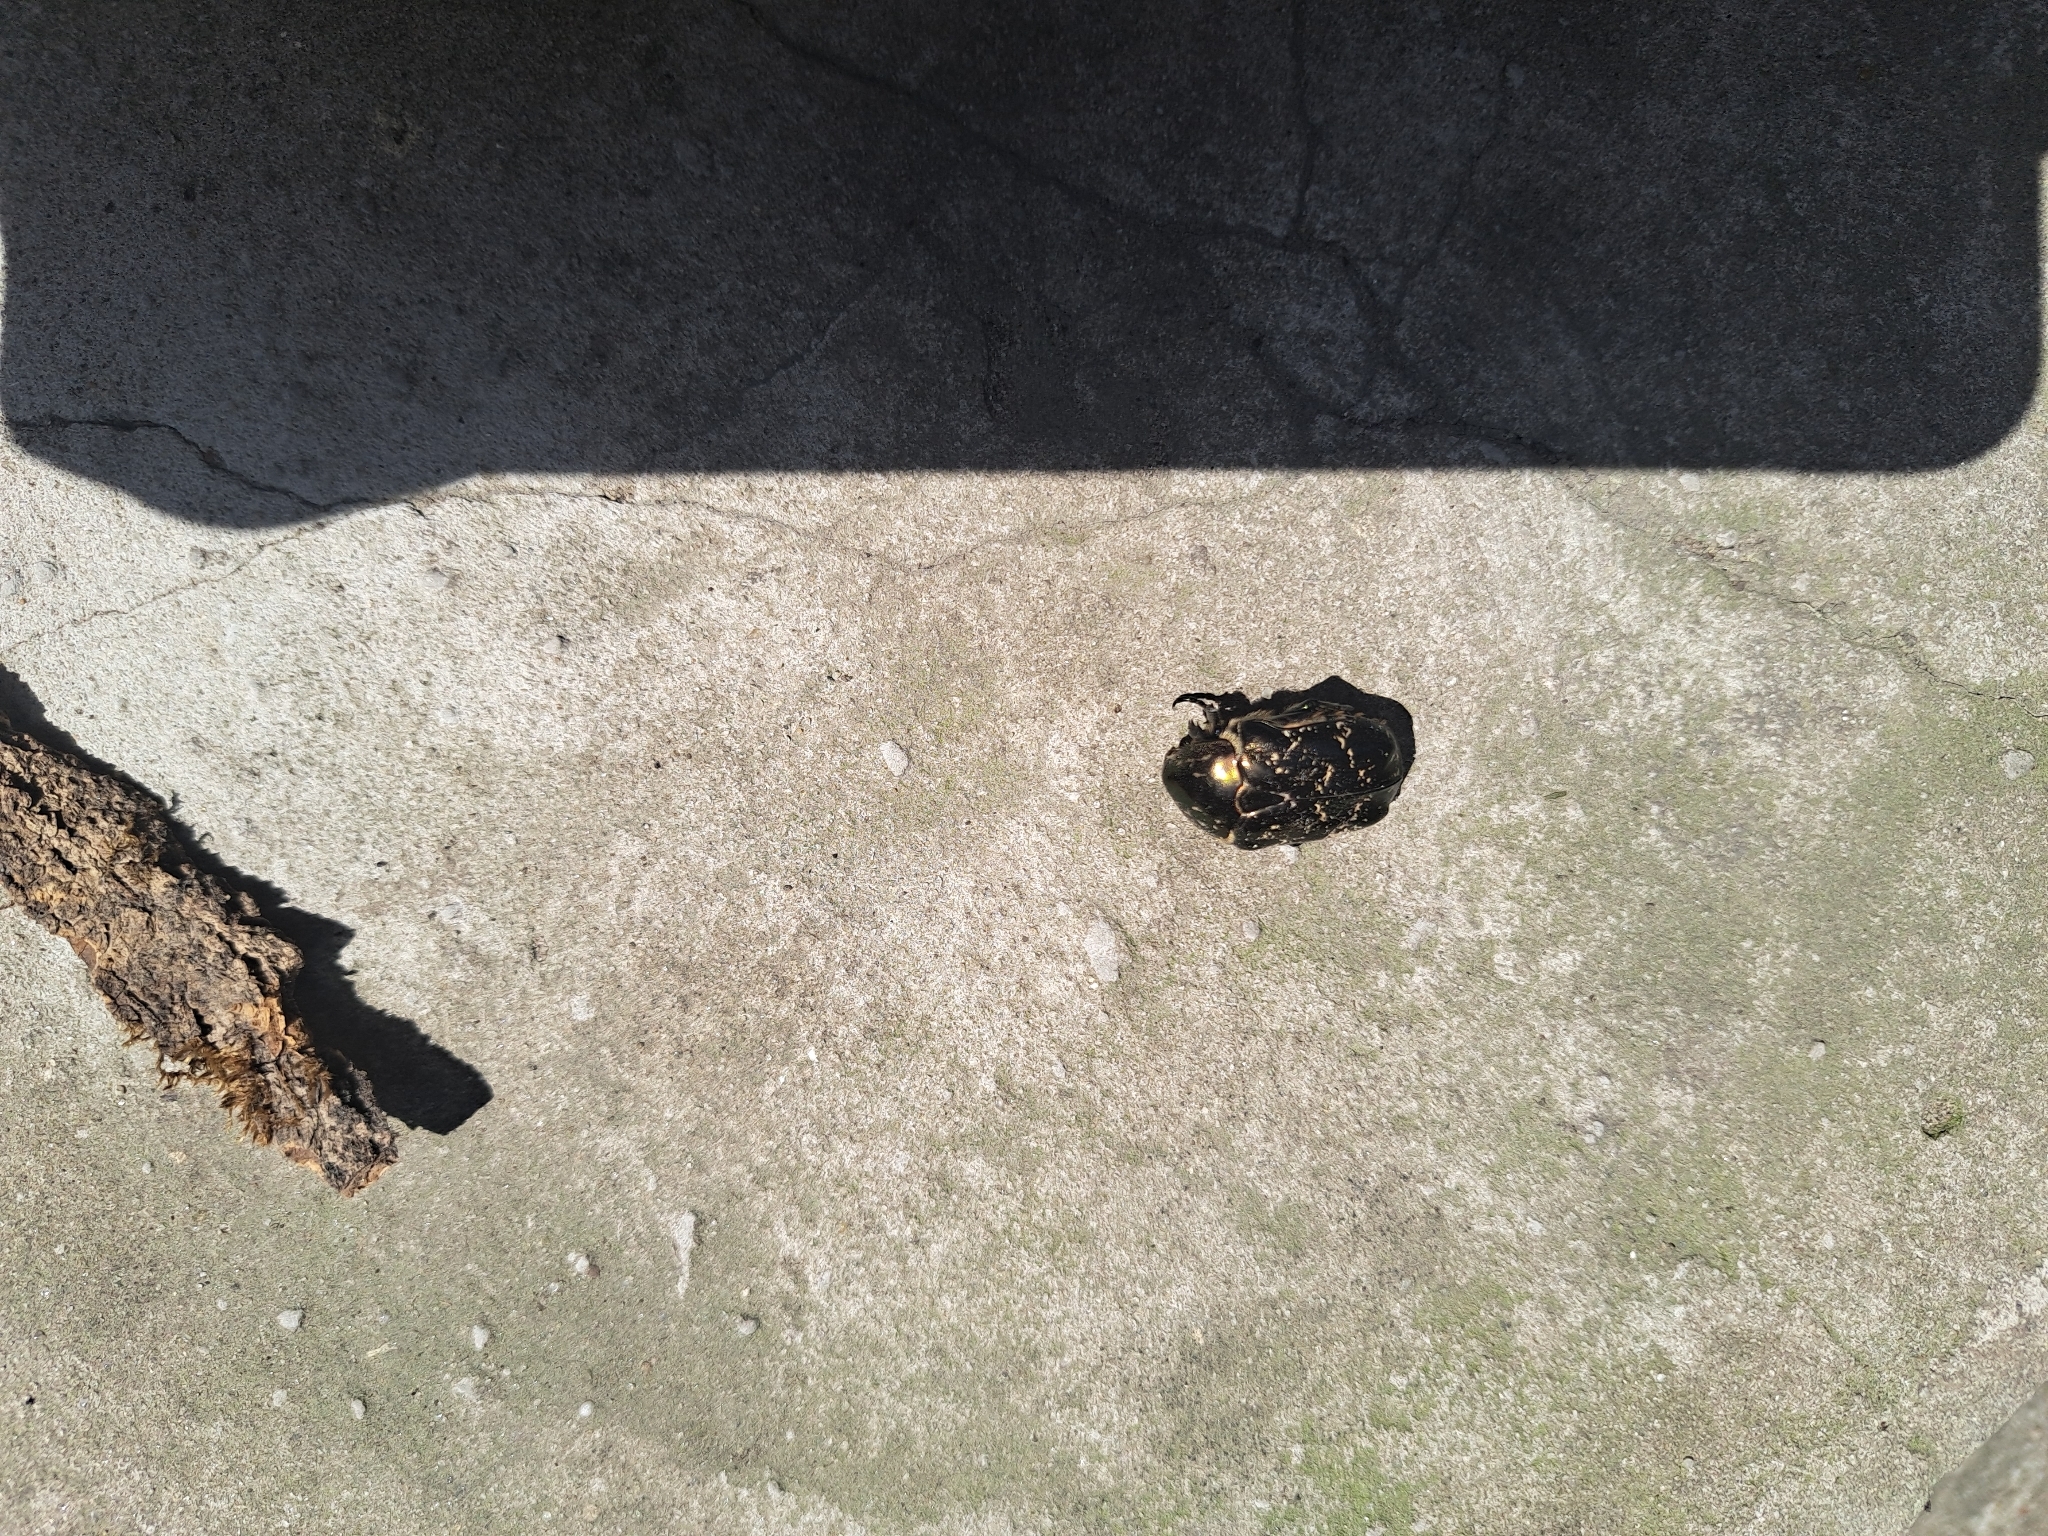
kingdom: Animalia
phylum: Arthropoda
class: Insecta
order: Coleoptera
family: Scarabaeidae
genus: Protaetia
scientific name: Protaetia marmorata
